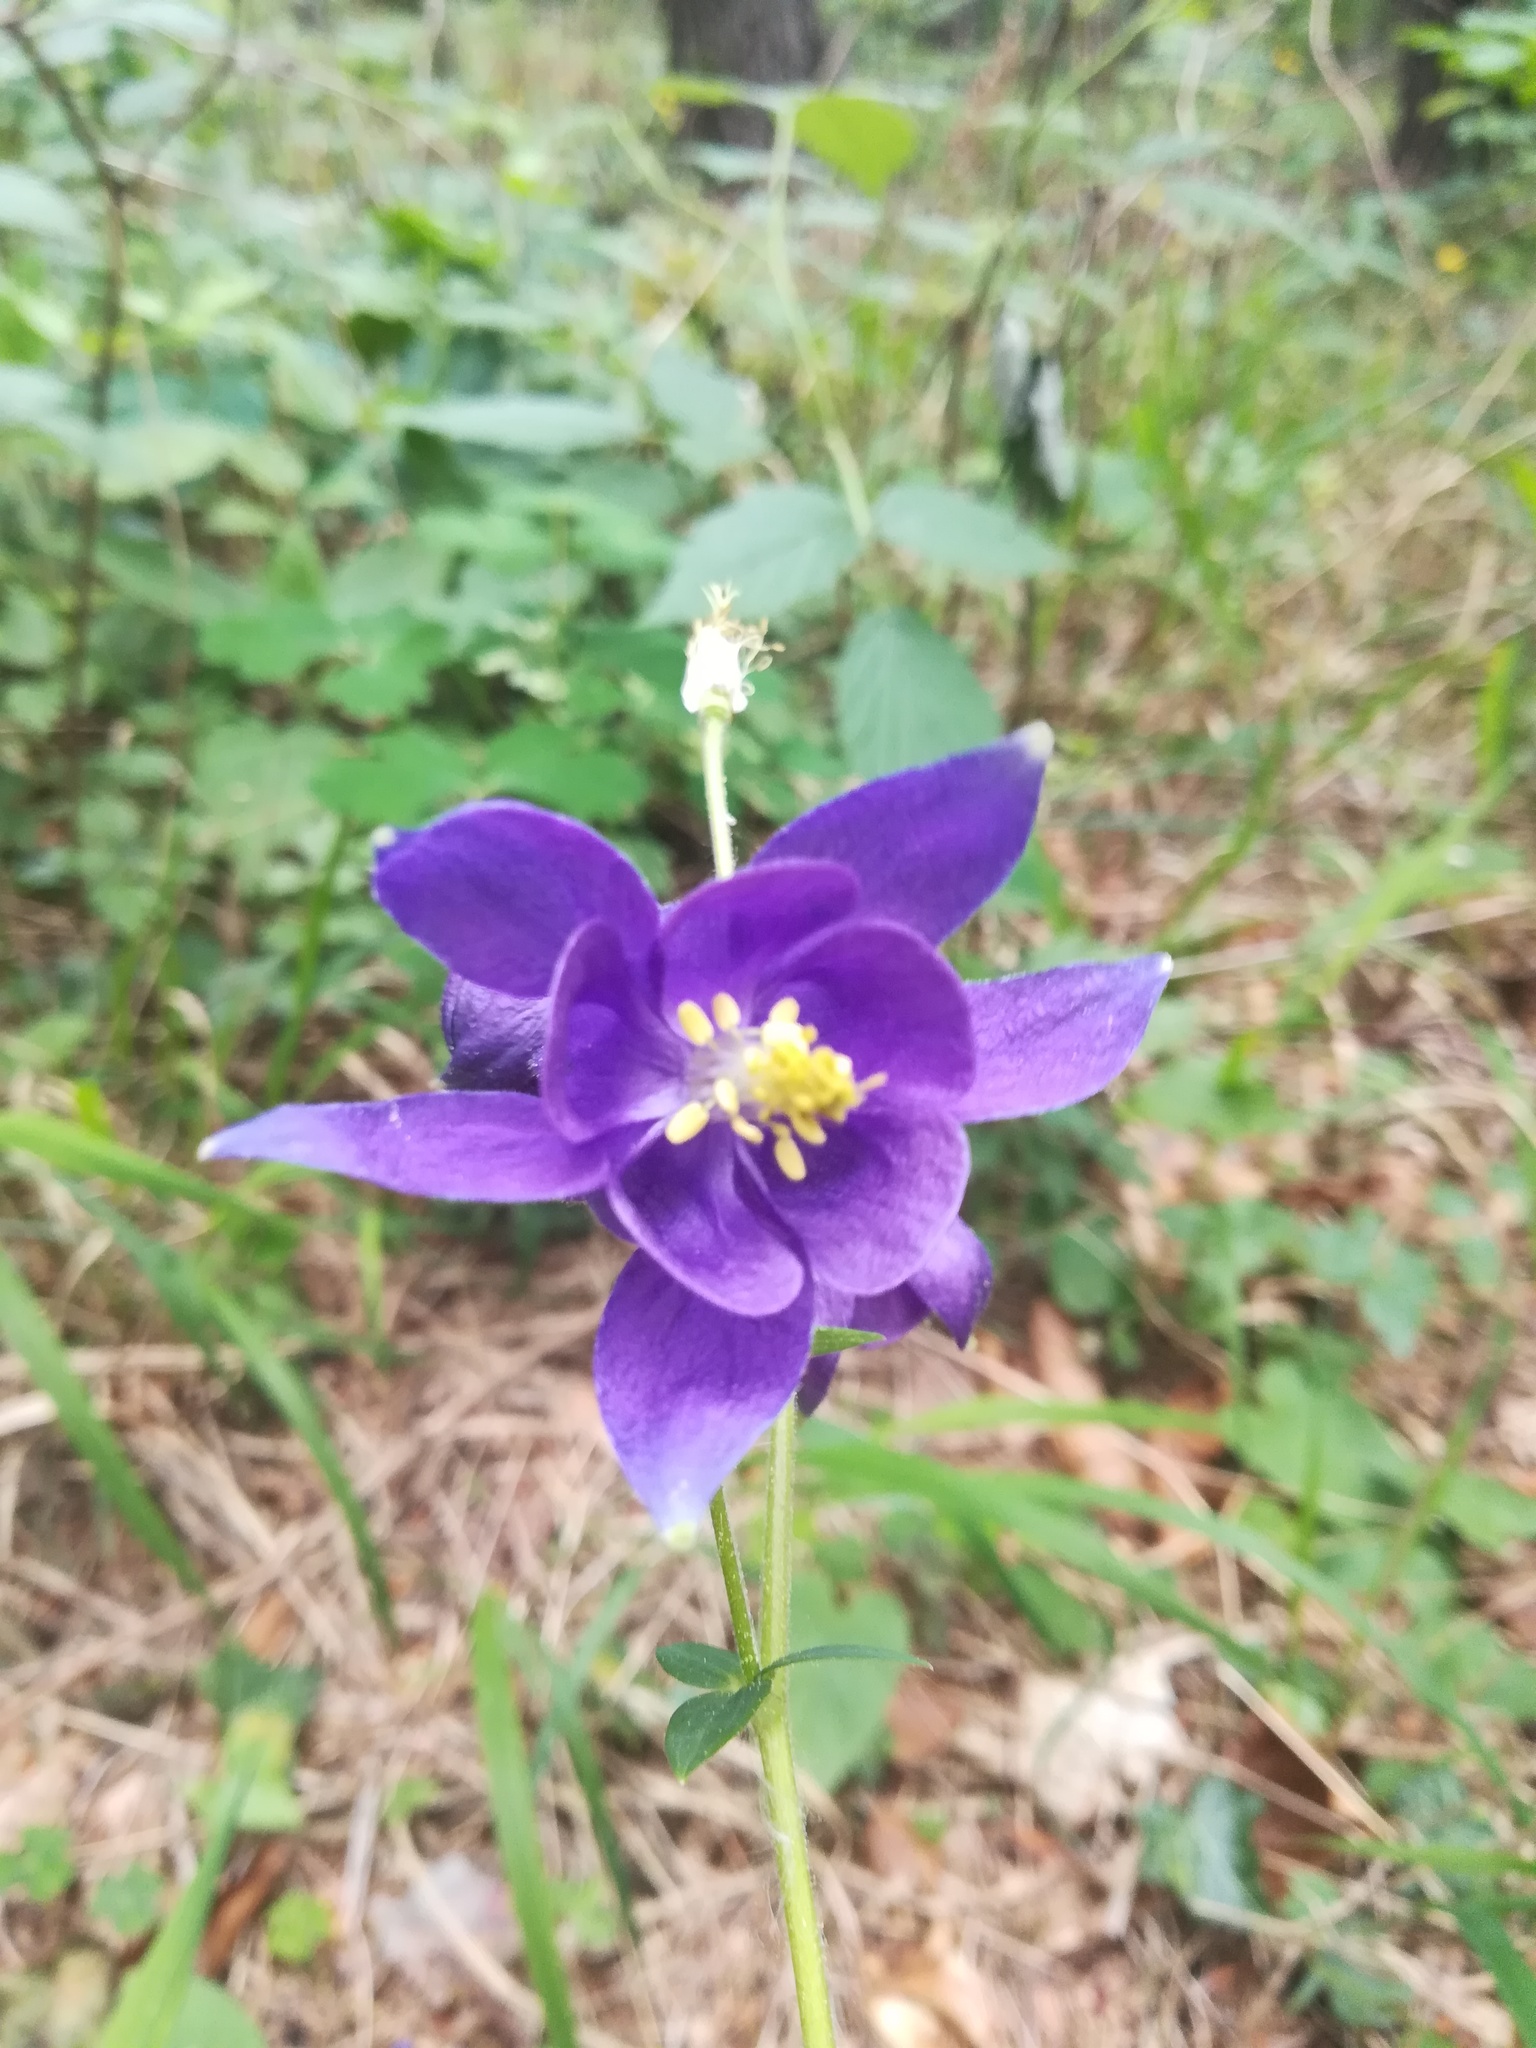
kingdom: Plantae
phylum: Tracheophyta
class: Magnoliopsida
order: Ranunculales
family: Ranunculaceae
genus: Aquilegia
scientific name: Aquilegia vulgaris
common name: Columbine
